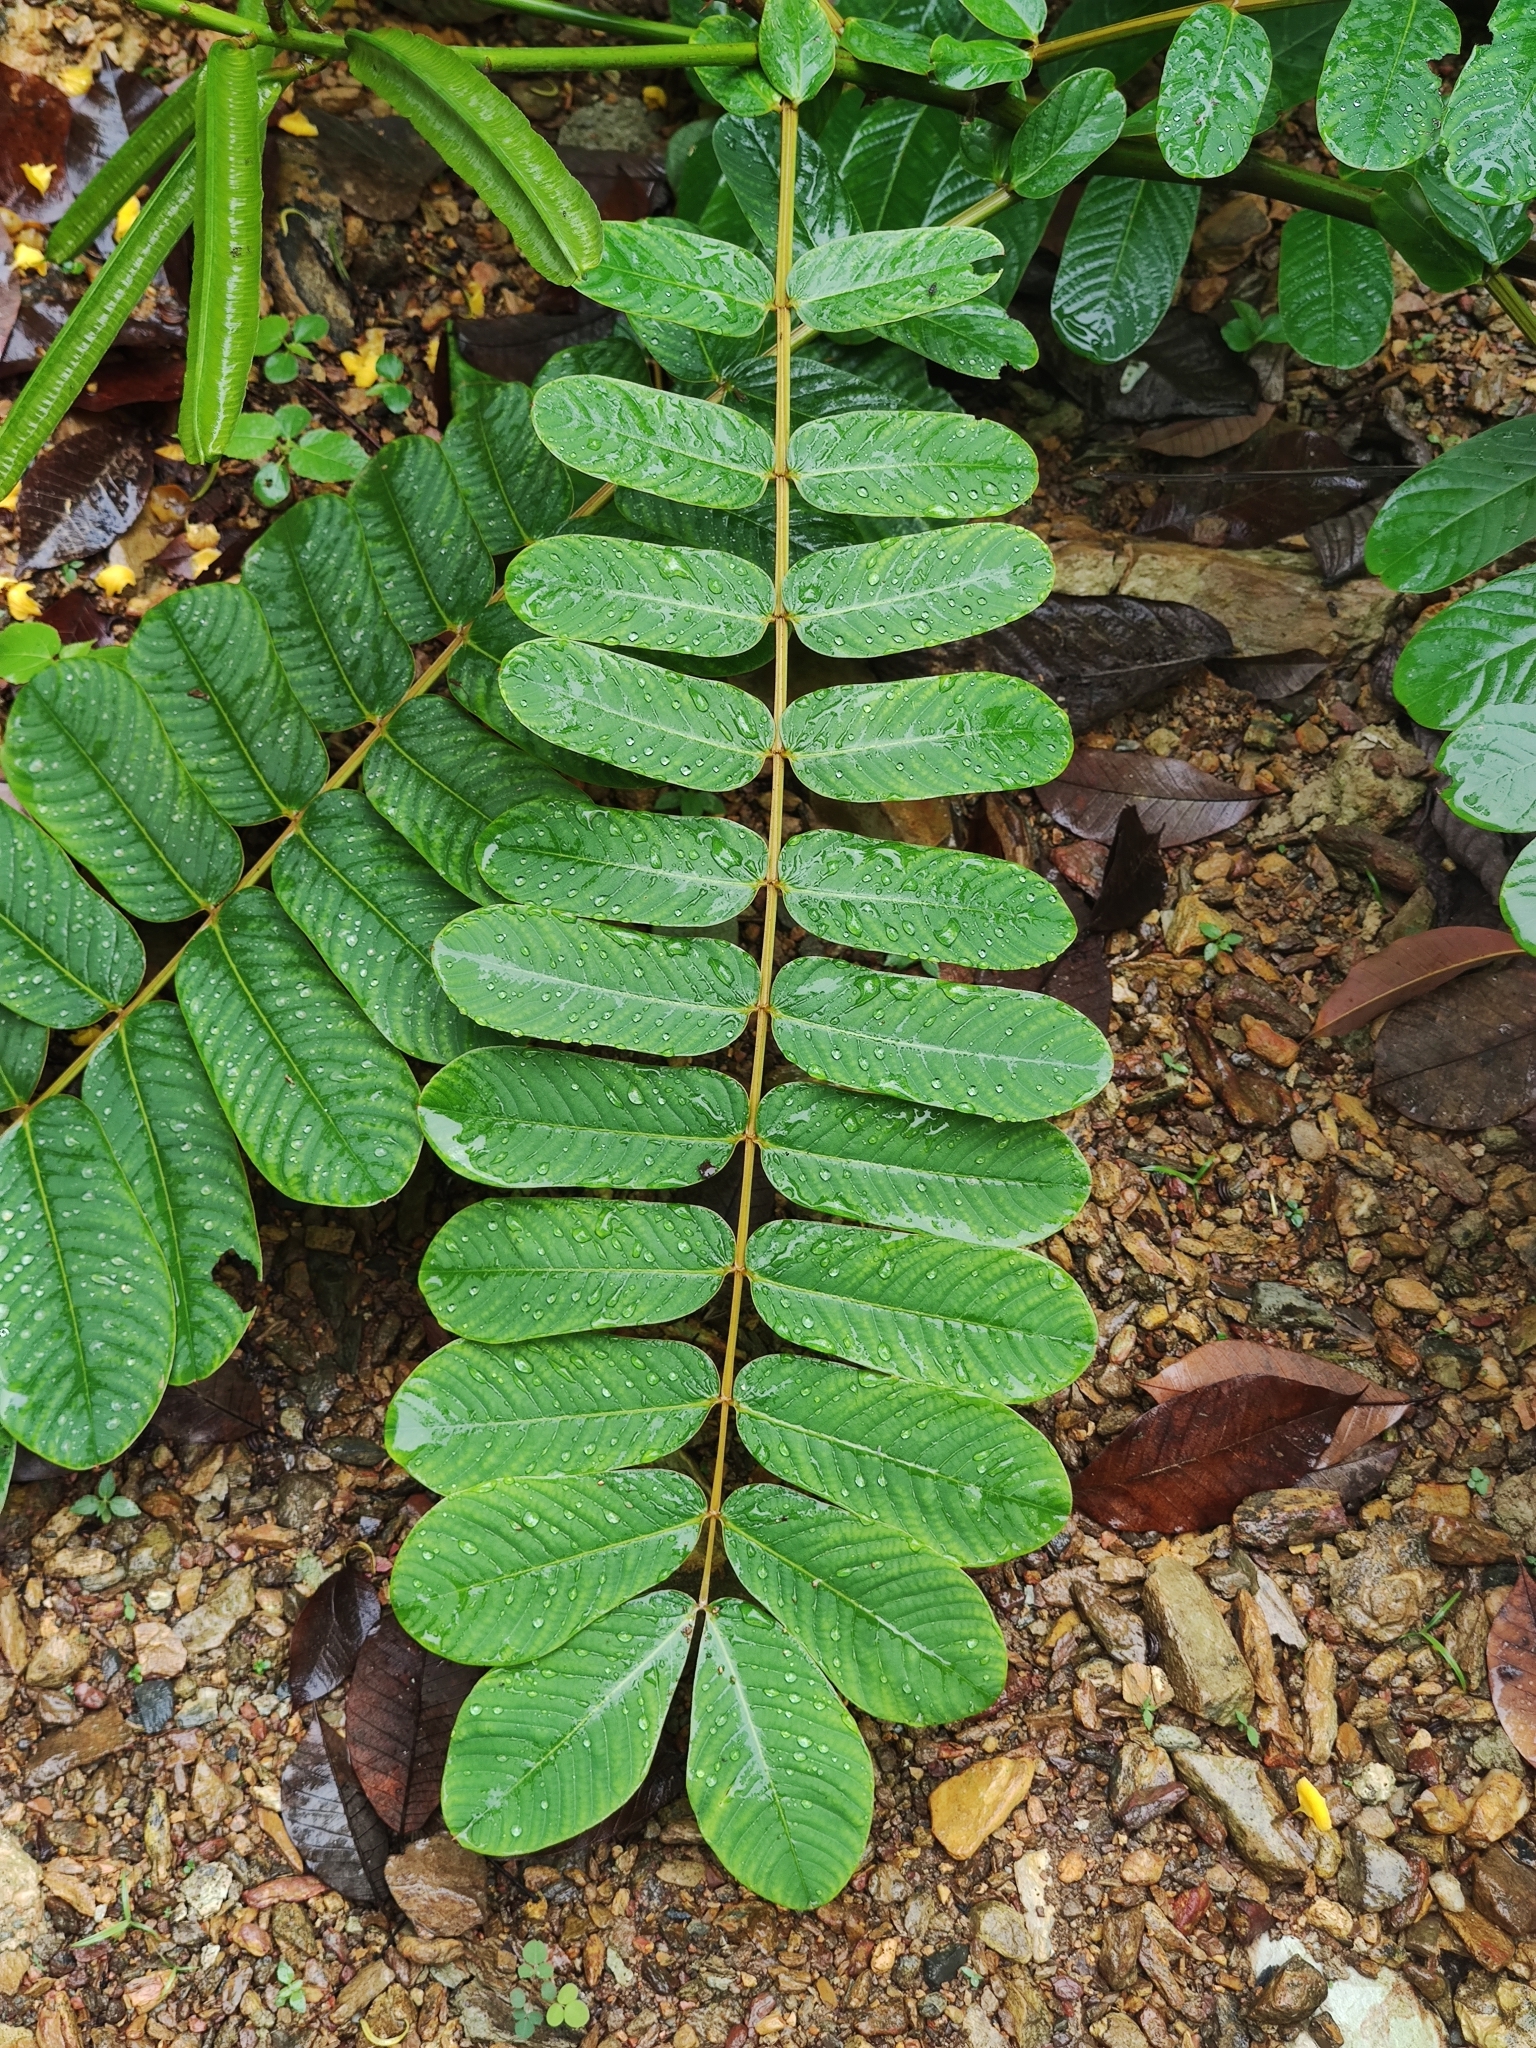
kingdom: Plantae
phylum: Tracheophyta
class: Magnoliopsida
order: Fabales
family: Fabaceae
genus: Senna
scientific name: Senna alata
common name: Emperor's candlesticks
